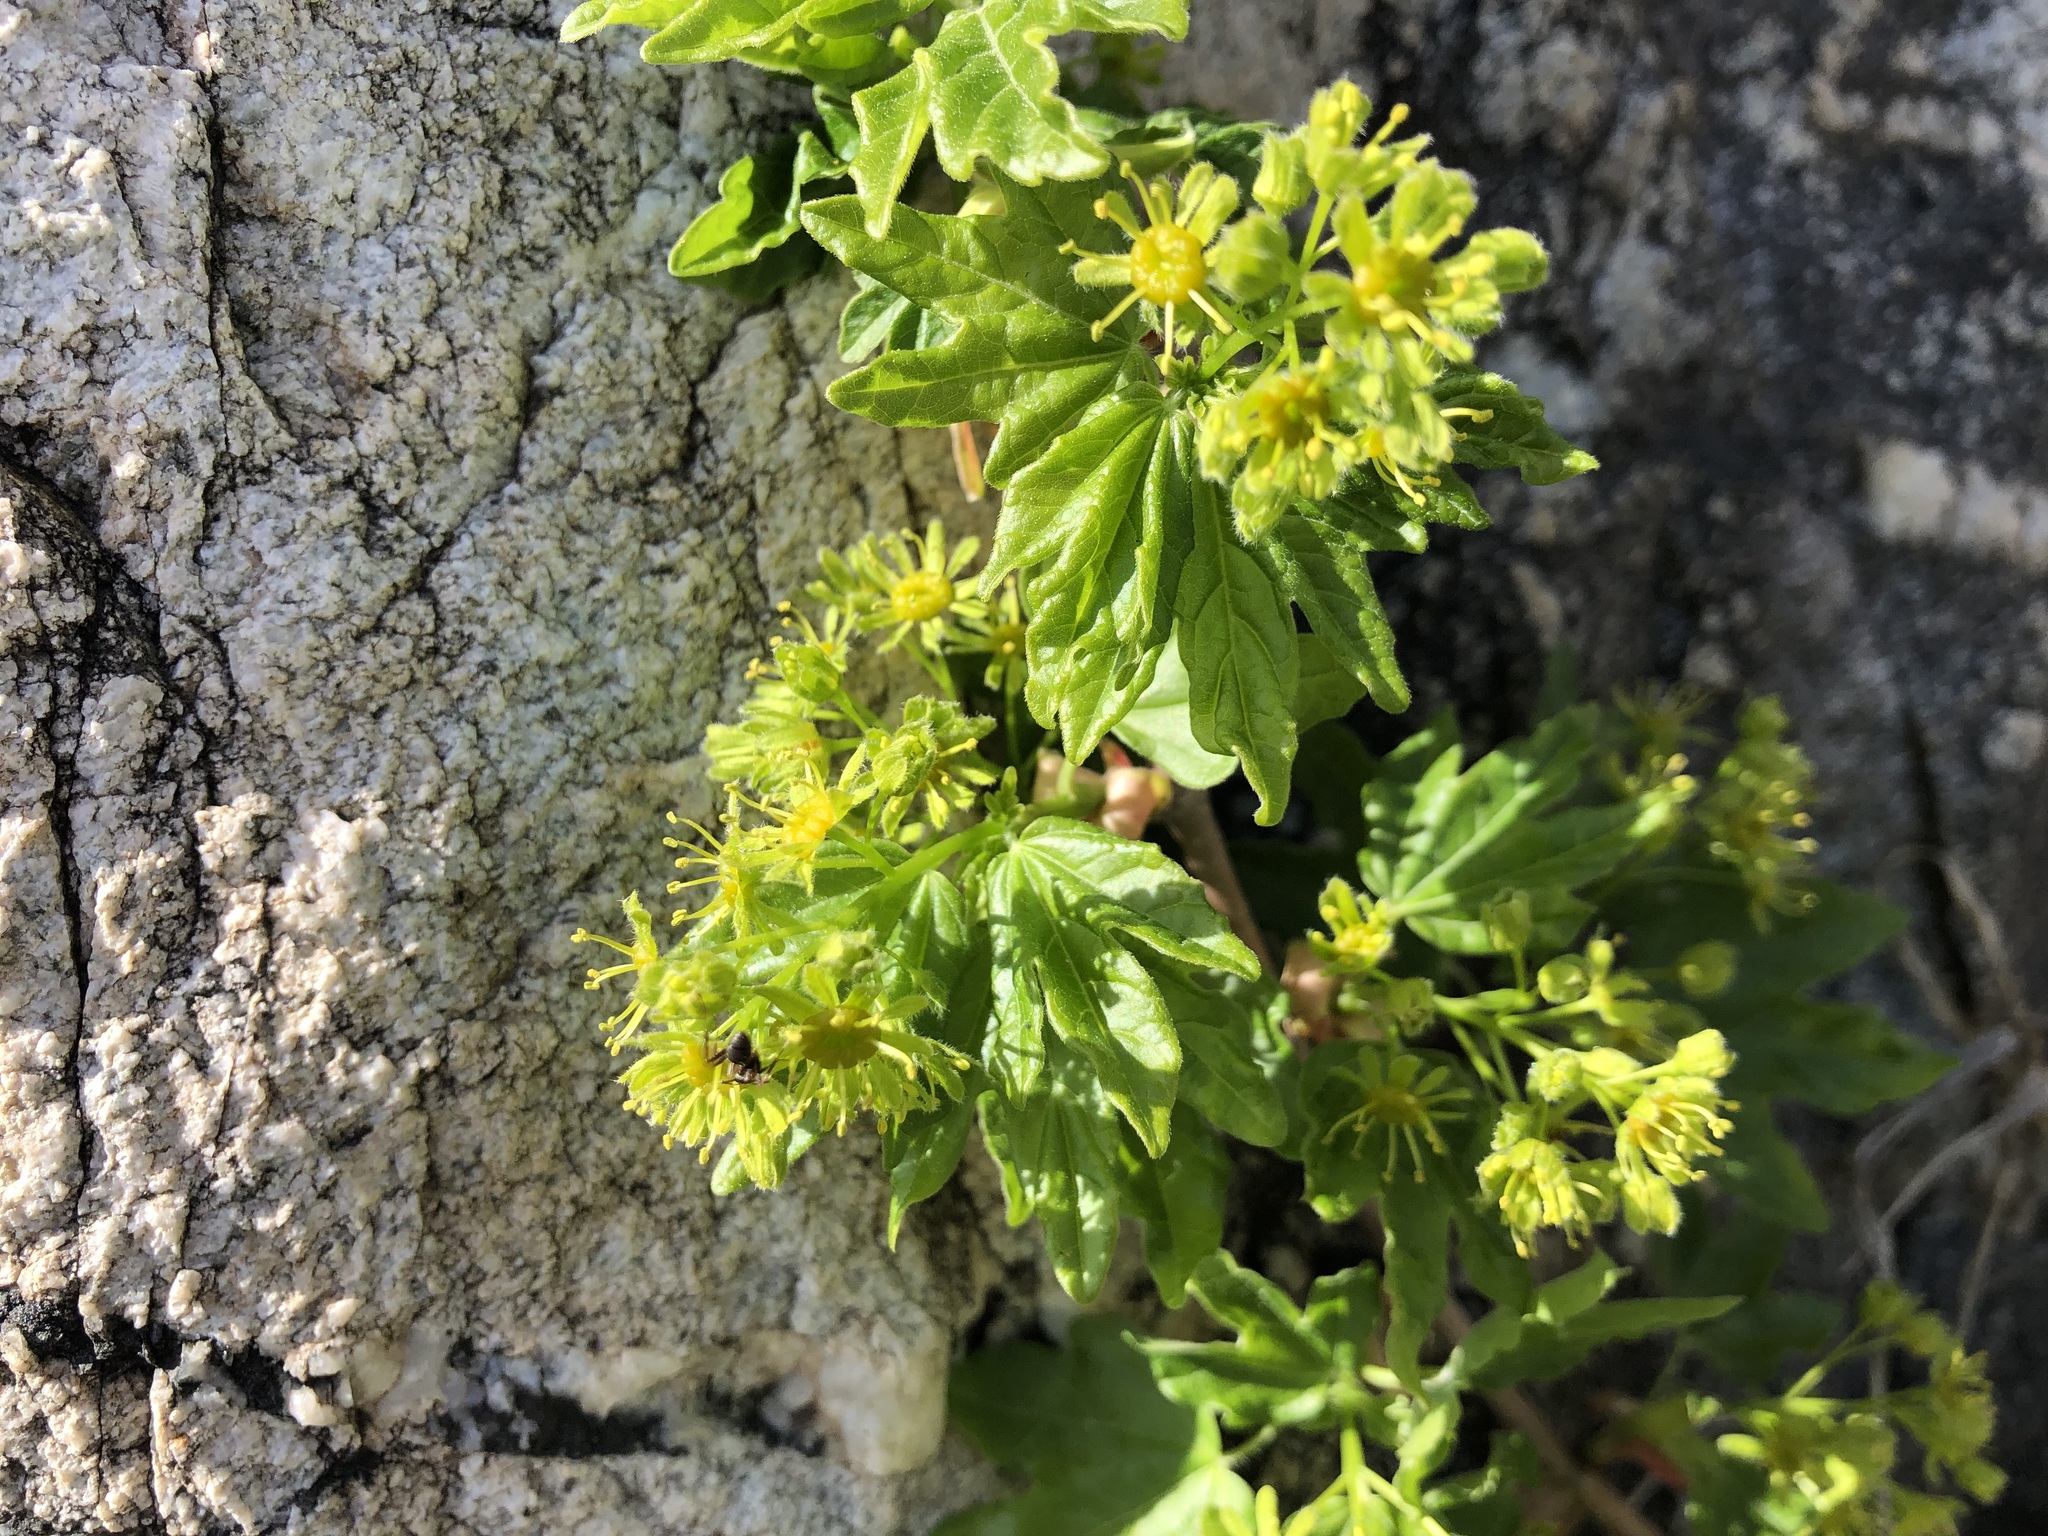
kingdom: Plantae
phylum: Tracheophyta
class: Magnoliopsida
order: Sapindales
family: Sapindaceae
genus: Acer
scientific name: Acer campestre
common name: Field maple
